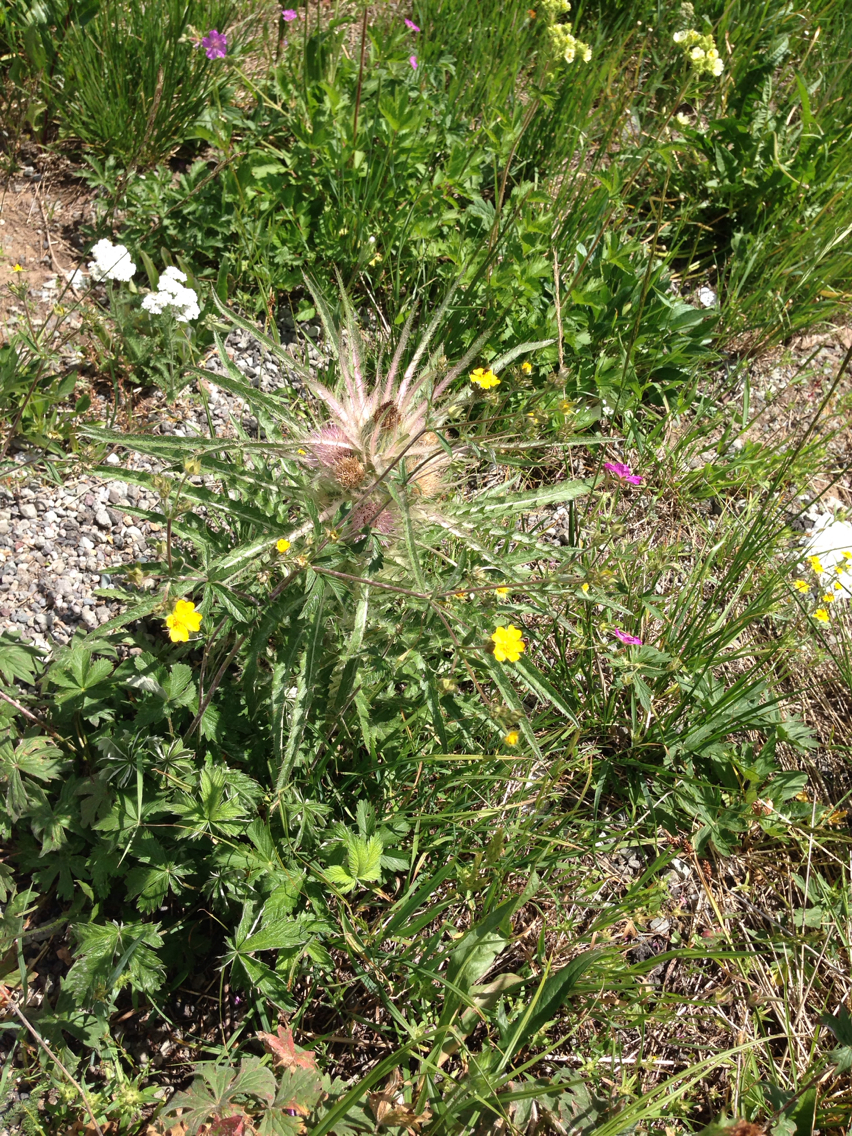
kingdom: Plantae
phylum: Tracheophyta
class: Magnoliopsida
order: Asterales
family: Asteraceae
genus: Cirsium
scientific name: Cirsium scariosum
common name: Meadow thistle
